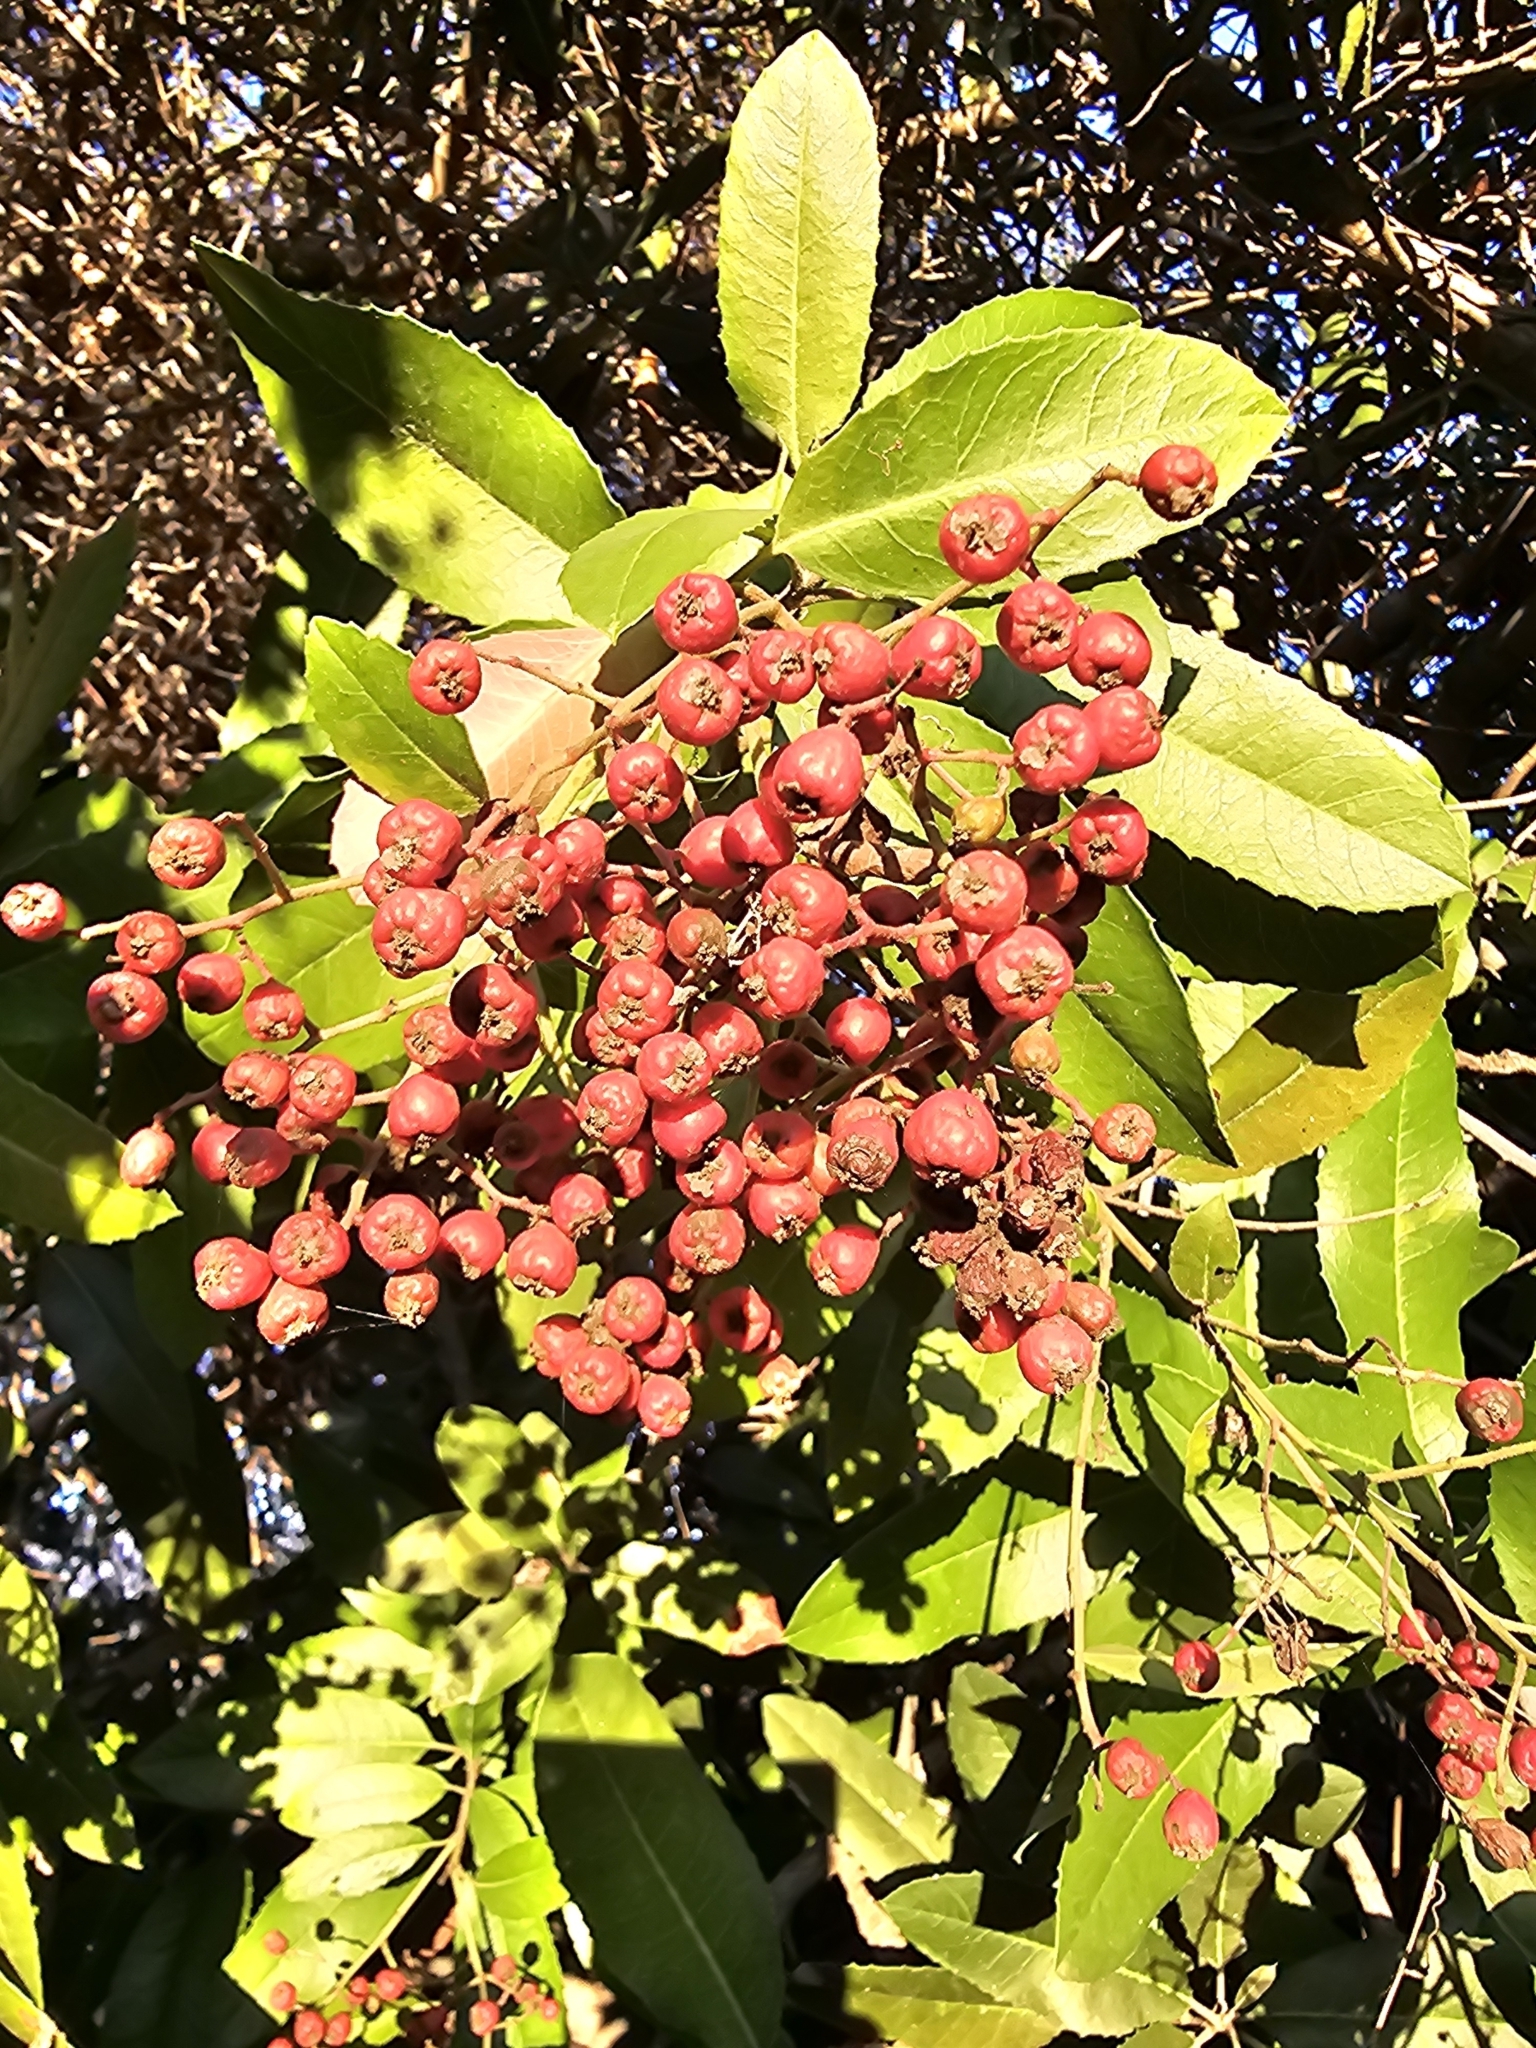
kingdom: Plantae
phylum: Tracheophyta
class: Magnoliopsida
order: Rosales
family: Rosaceae
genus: Heteromeles
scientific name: Heteromeles arbutifolia
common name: California-holly
